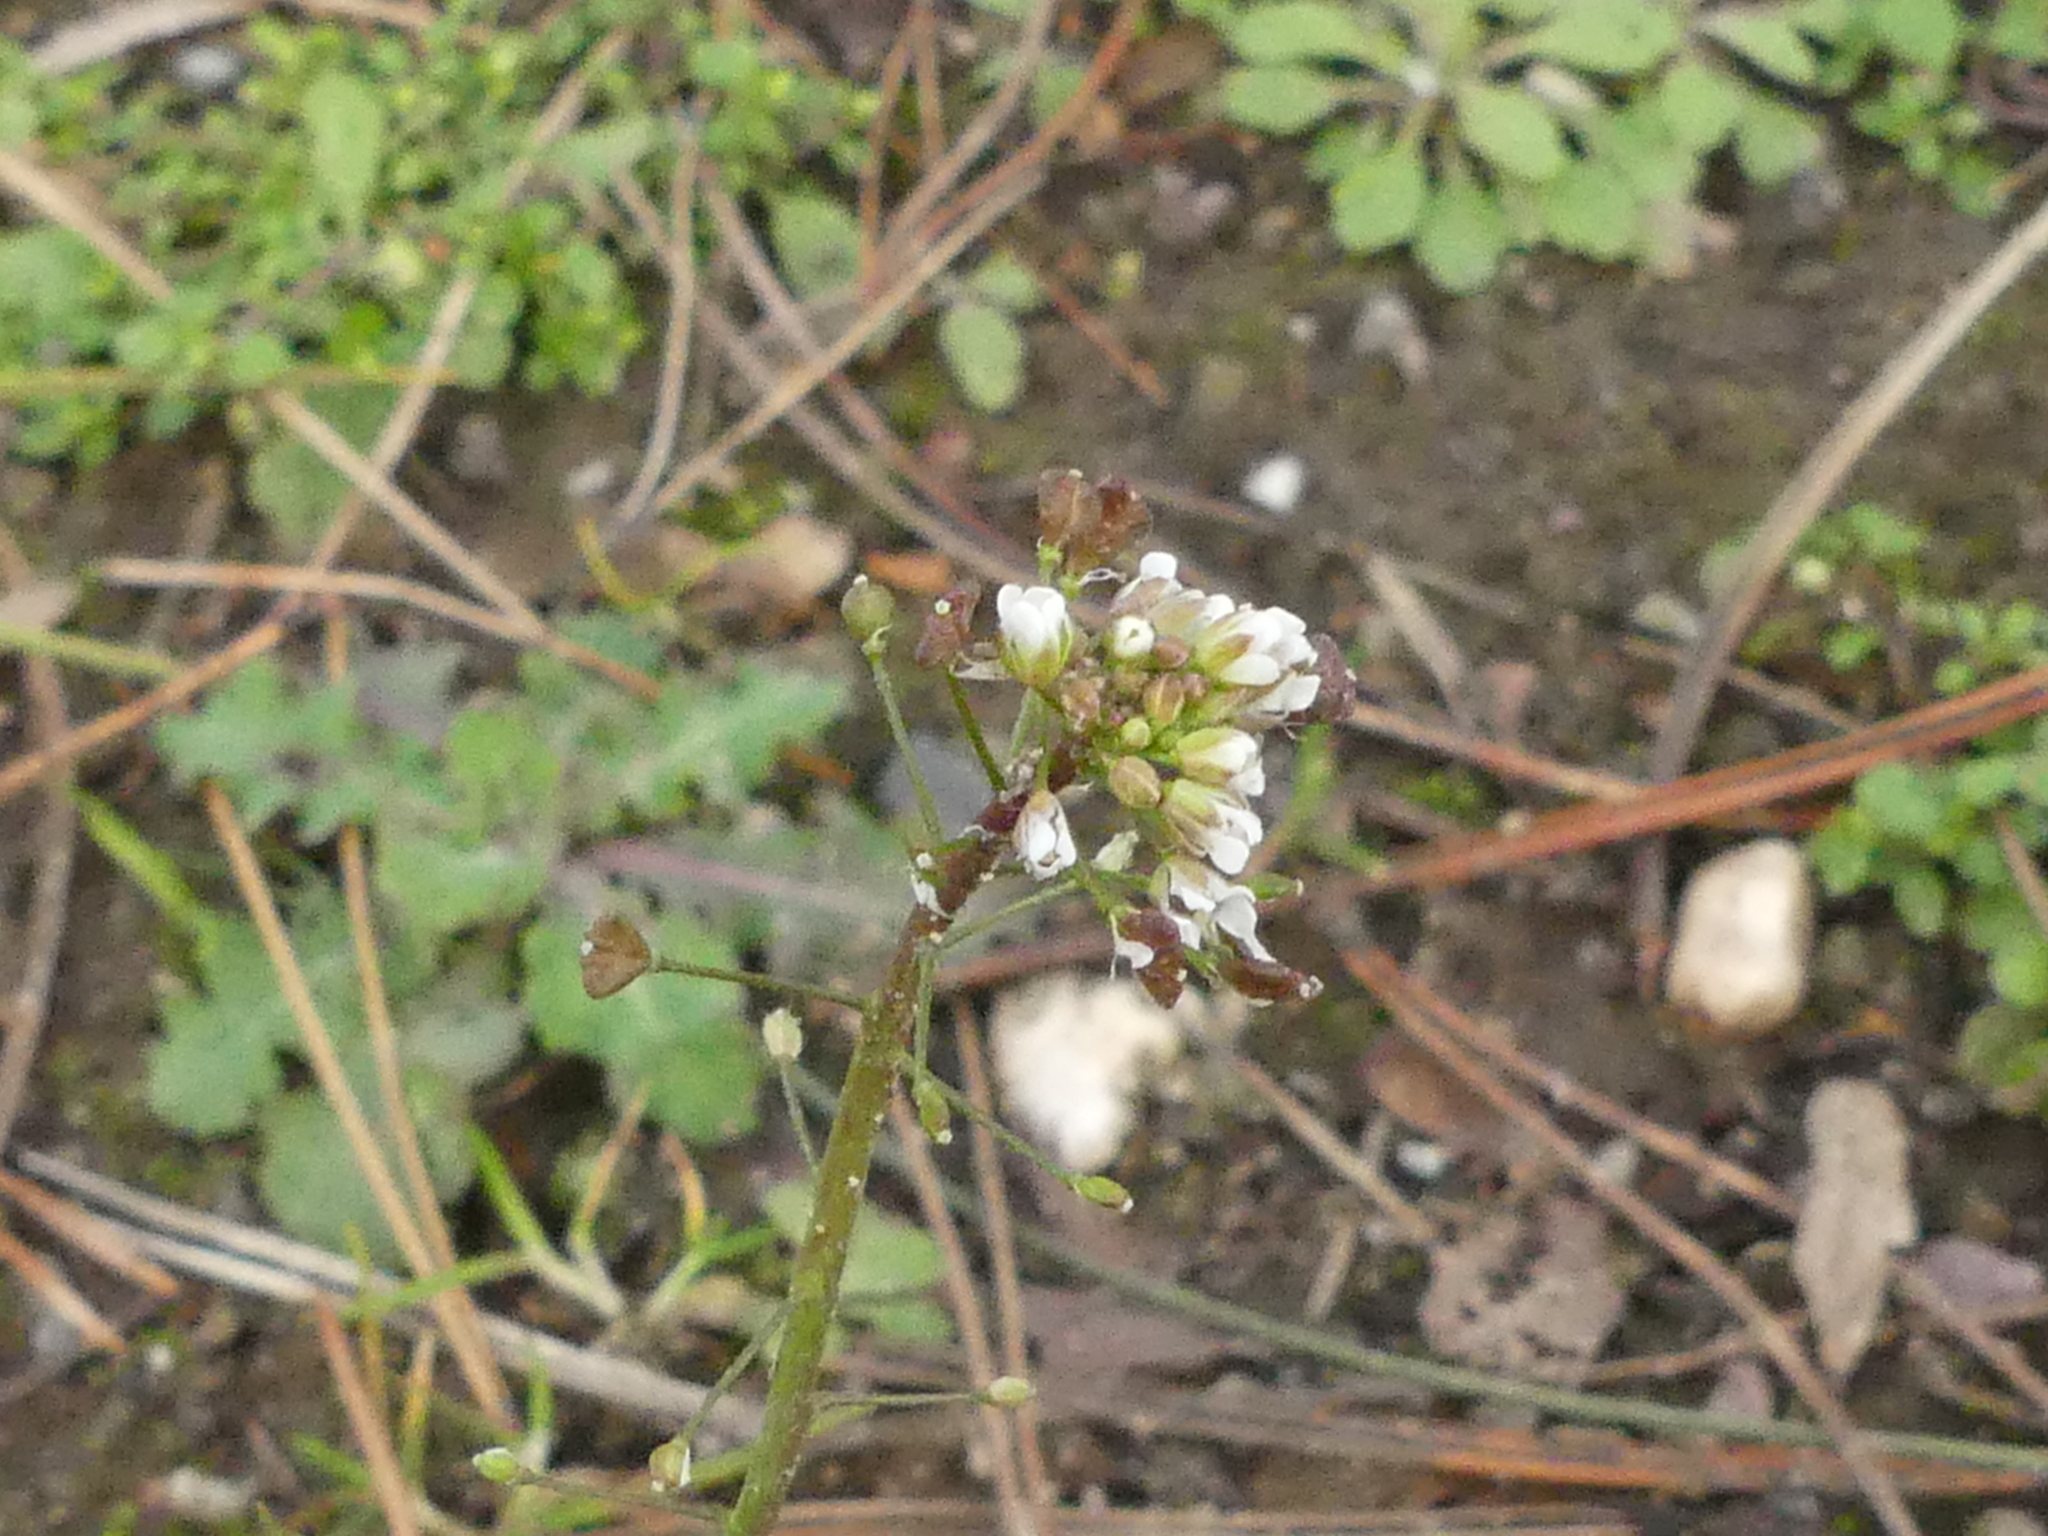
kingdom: Plantae
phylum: Tracheophyta
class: Magnoliopsida
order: Brassicales
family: Brassicaceae
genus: Capsella
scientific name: Capsella bursa-pastoris
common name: Shepherd's purse
